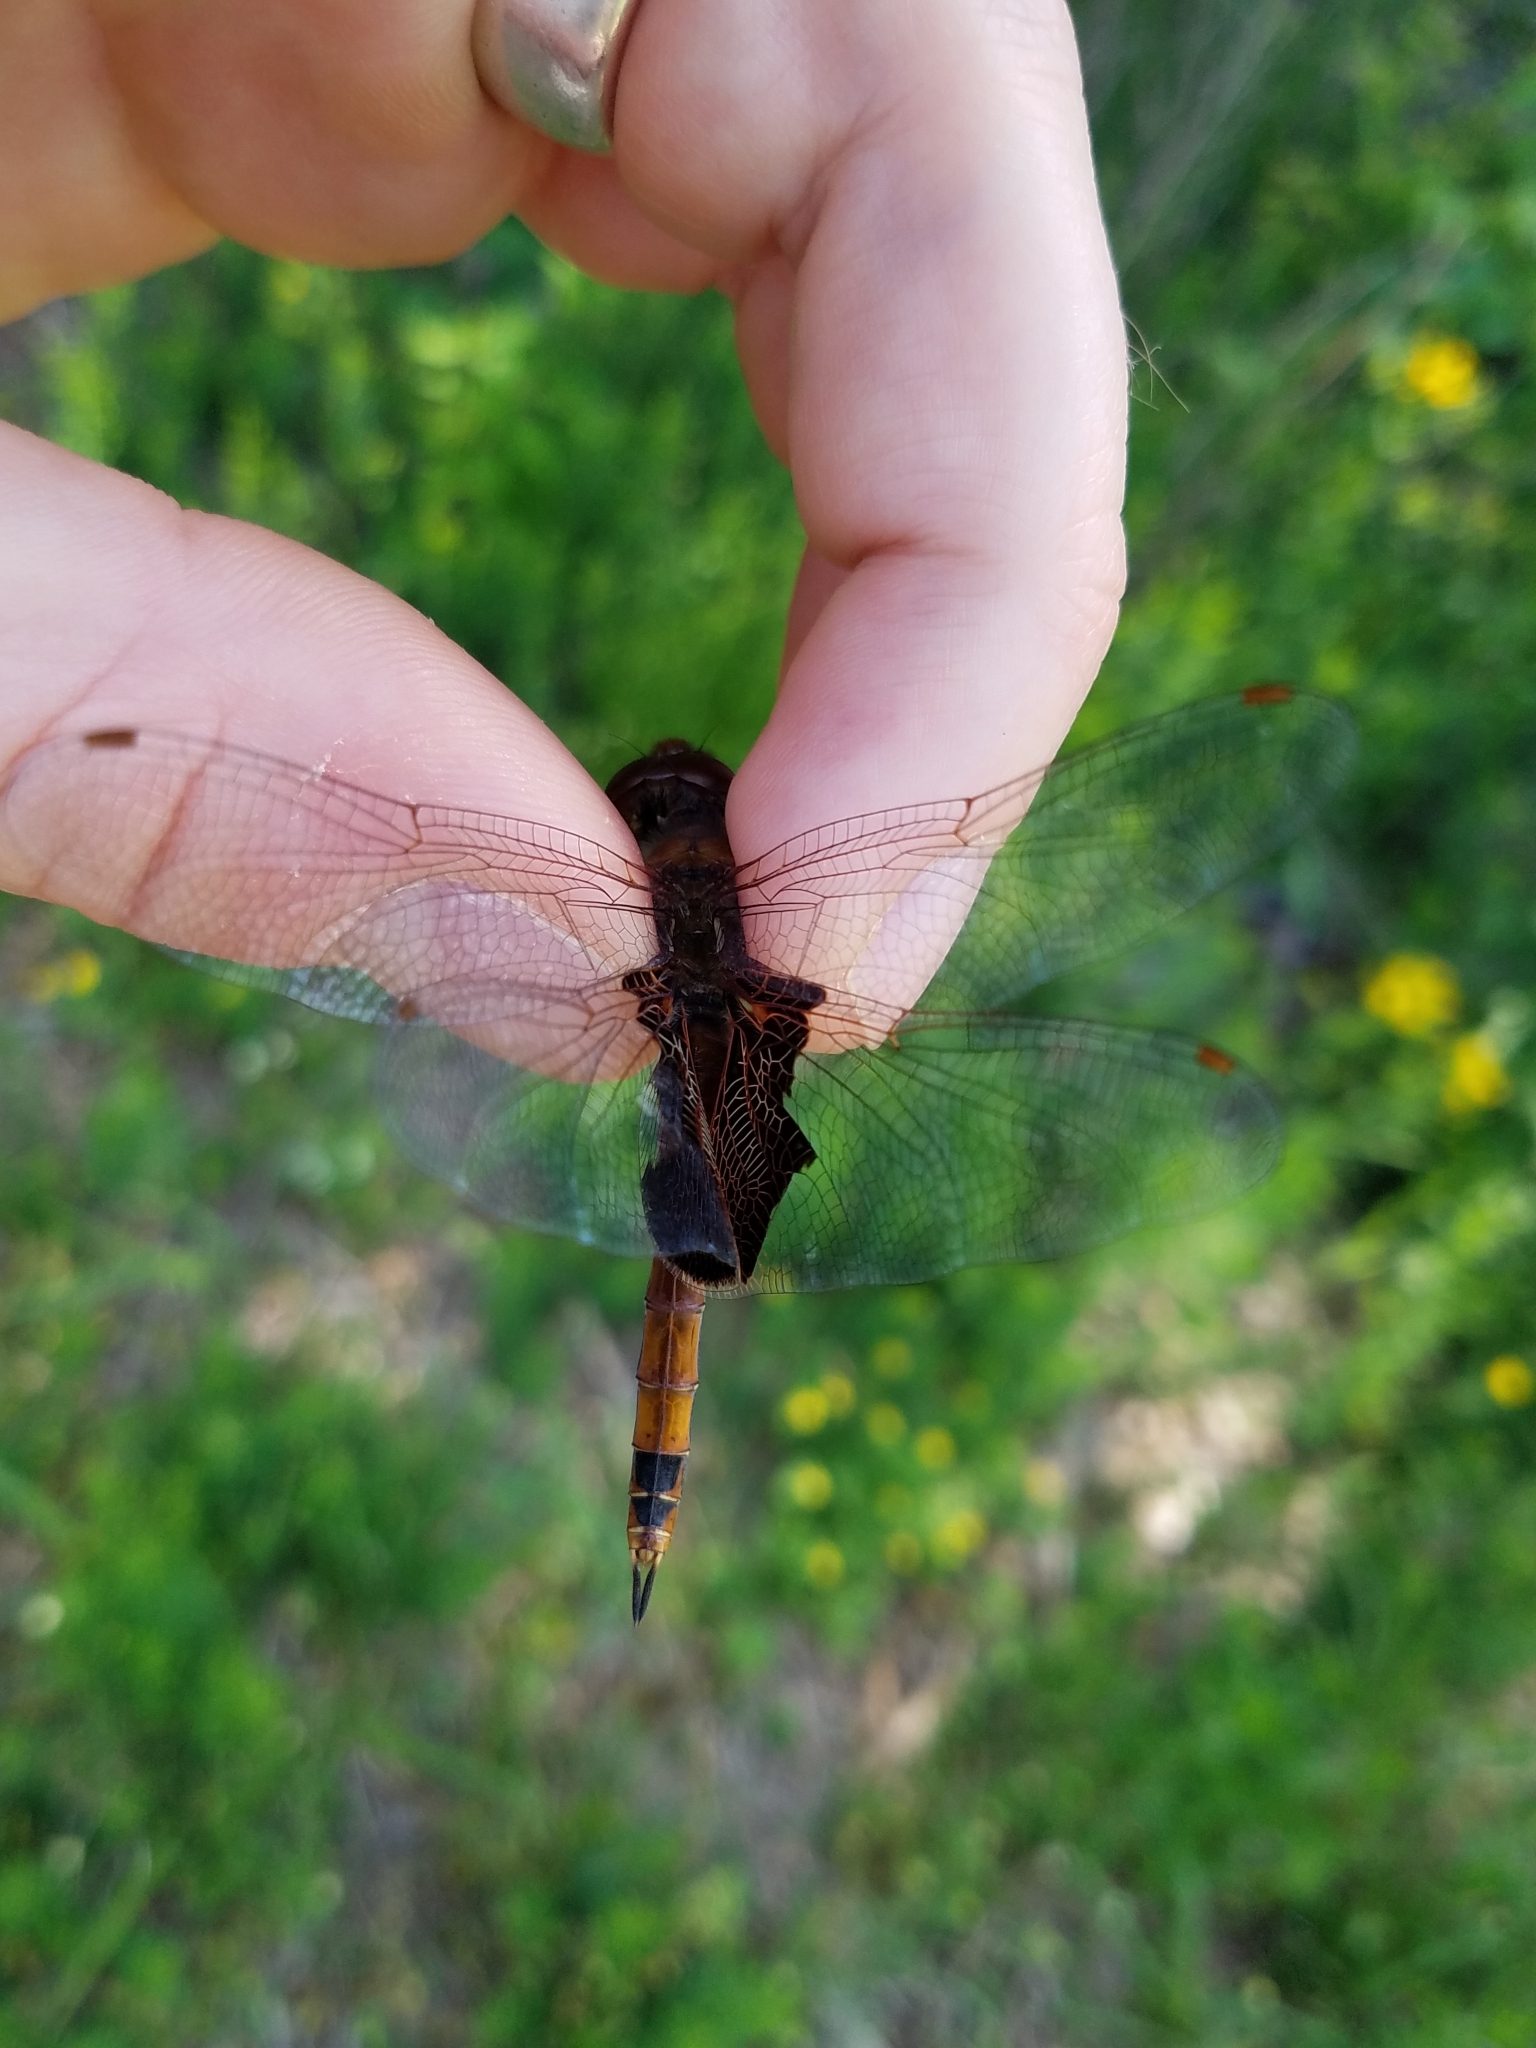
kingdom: Animalia
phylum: Arthropoda
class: Insecta
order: Odonata
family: Libellulidae
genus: Tramea
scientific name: Tramea carolina
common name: Carolina saddlebags
